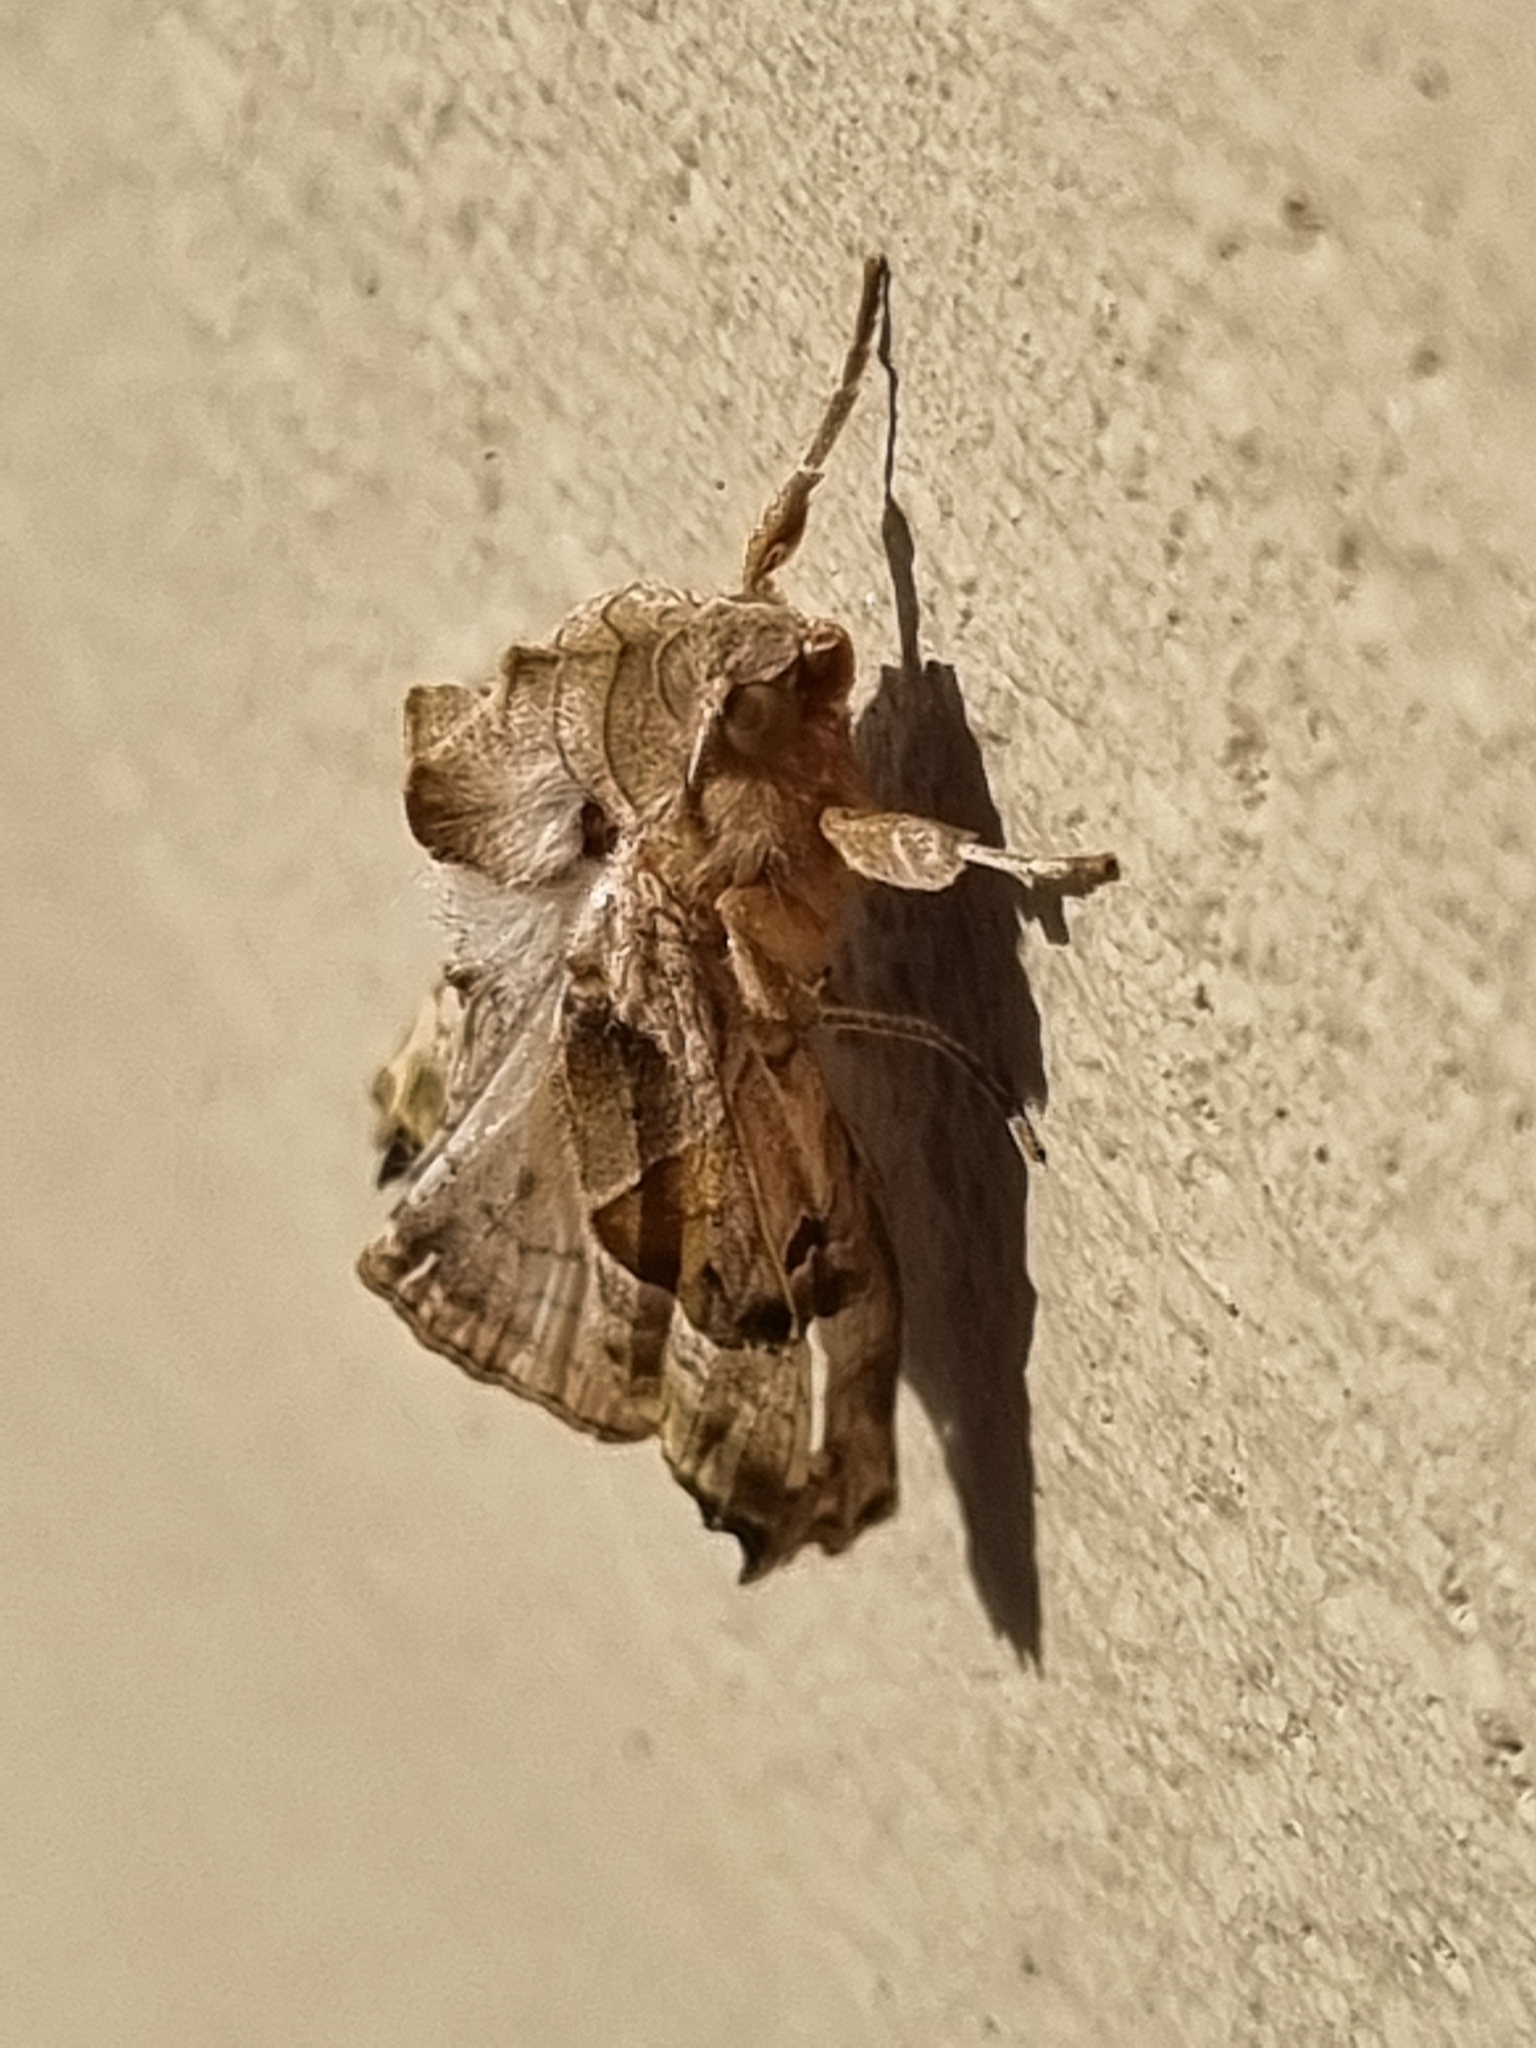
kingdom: Animalia
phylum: Arthropoda
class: Insecta
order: Lepidoptera
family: Noctuidae
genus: Phlogophora
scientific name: Phlogophora meticulosa
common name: Angle shades
